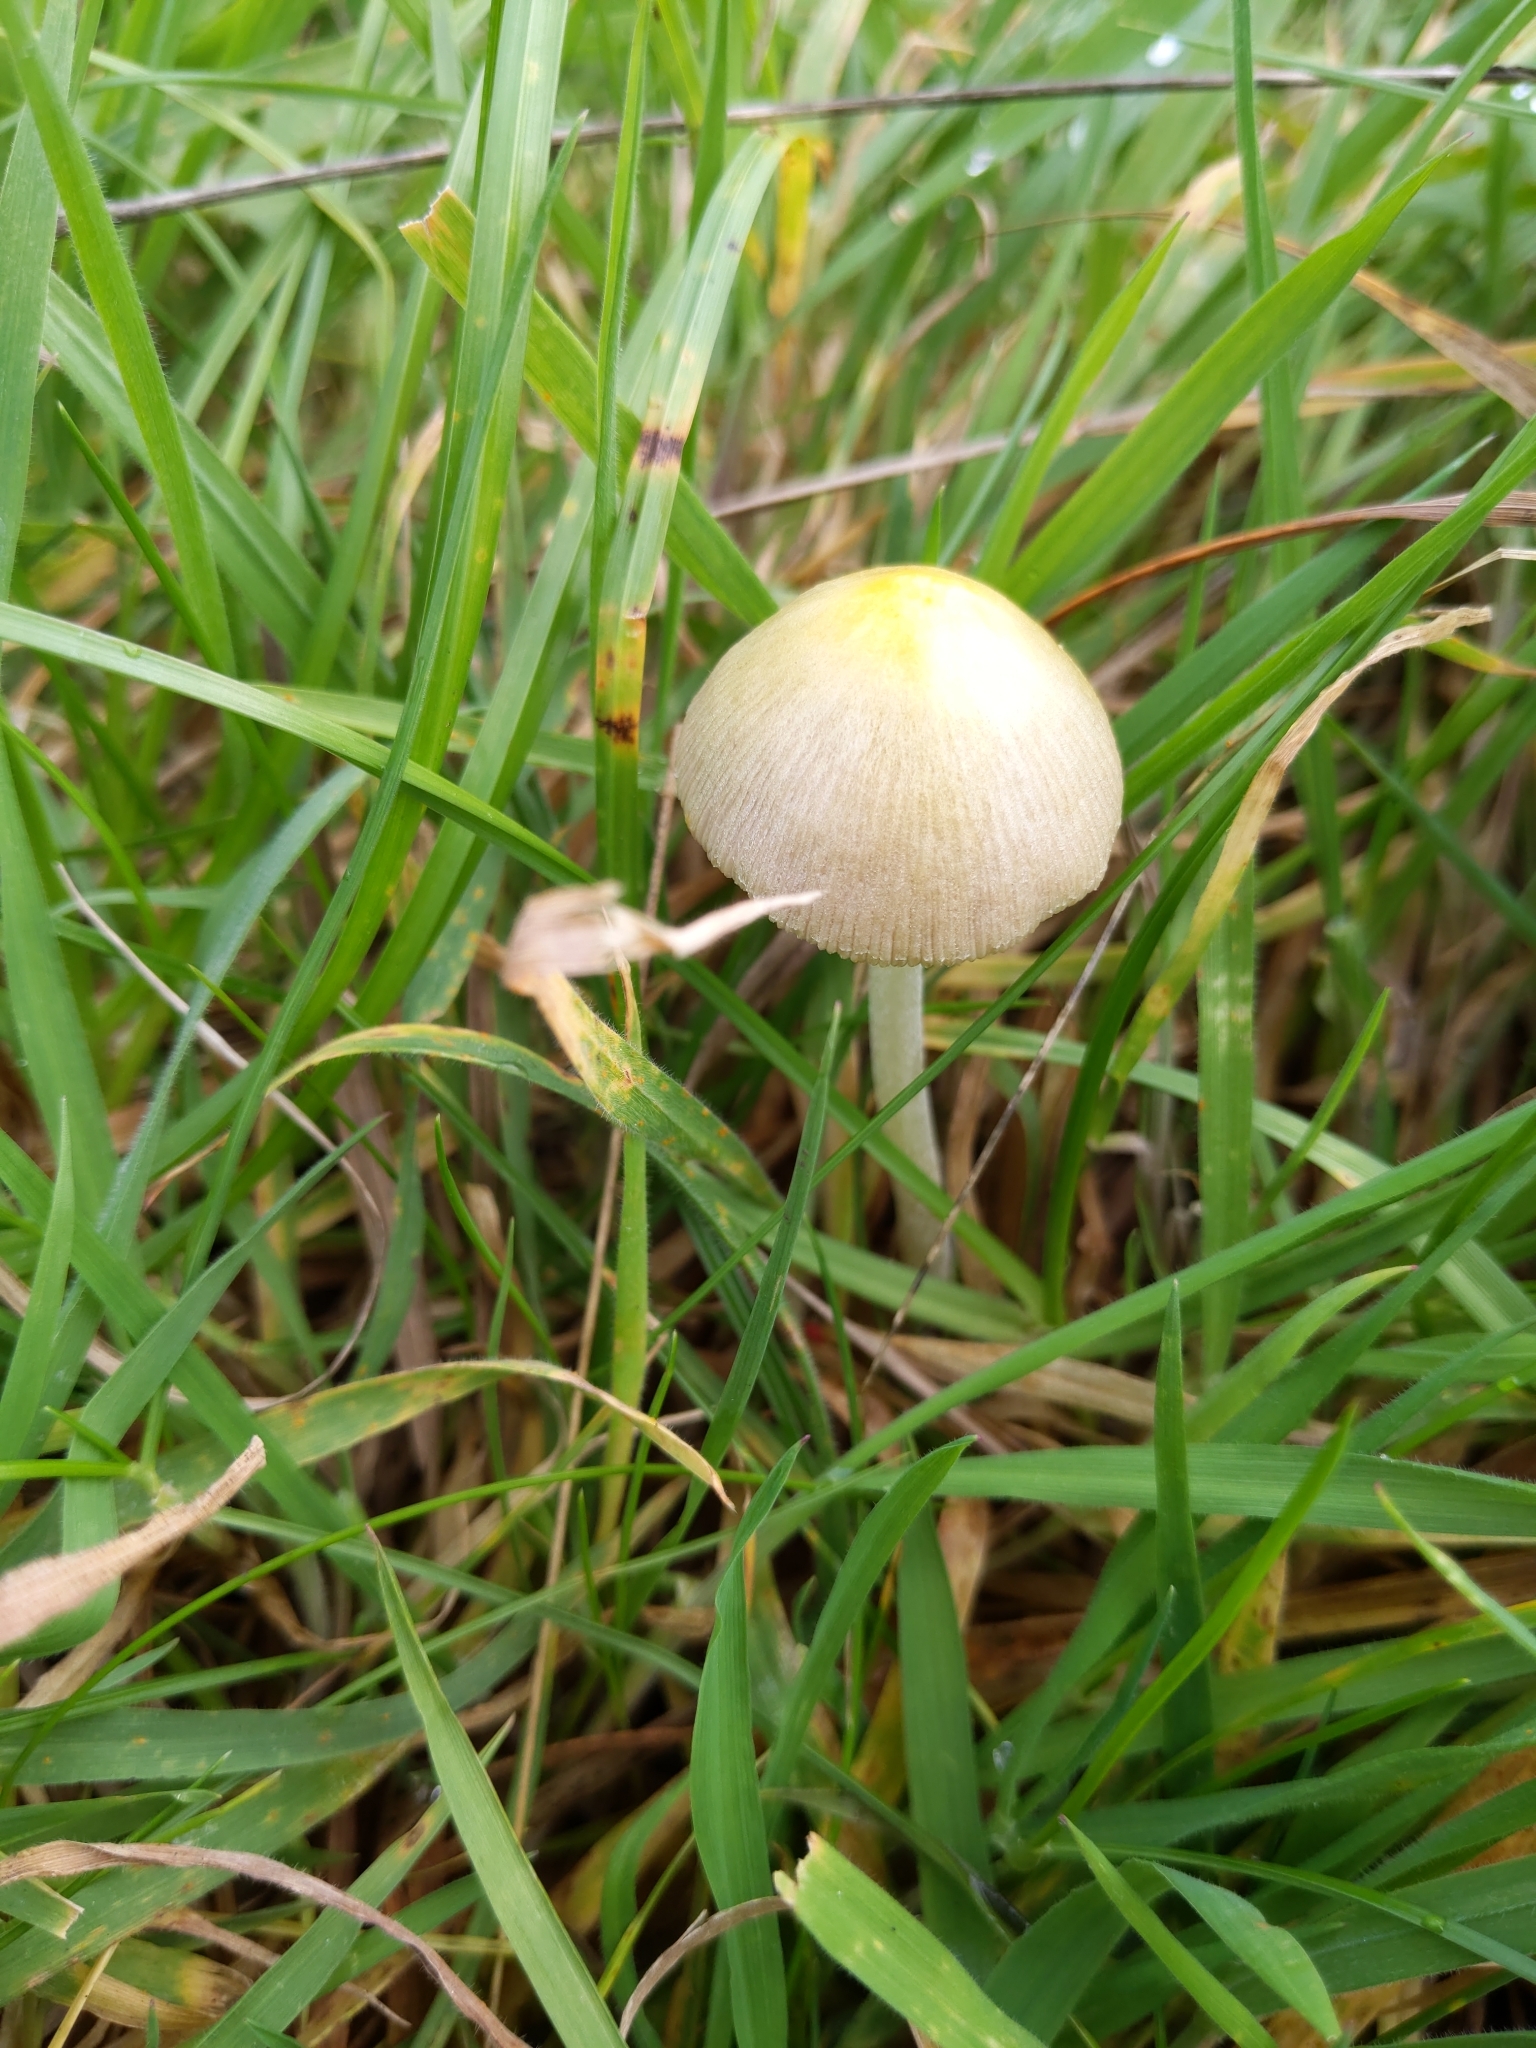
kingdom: Fungi
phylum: Basidiomycota
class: Agaricomycetes
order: Agaricales
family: Bolbitiaceae
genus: Bolbitius
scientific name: Bolbitius titubans
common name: Yellow fieldcap
